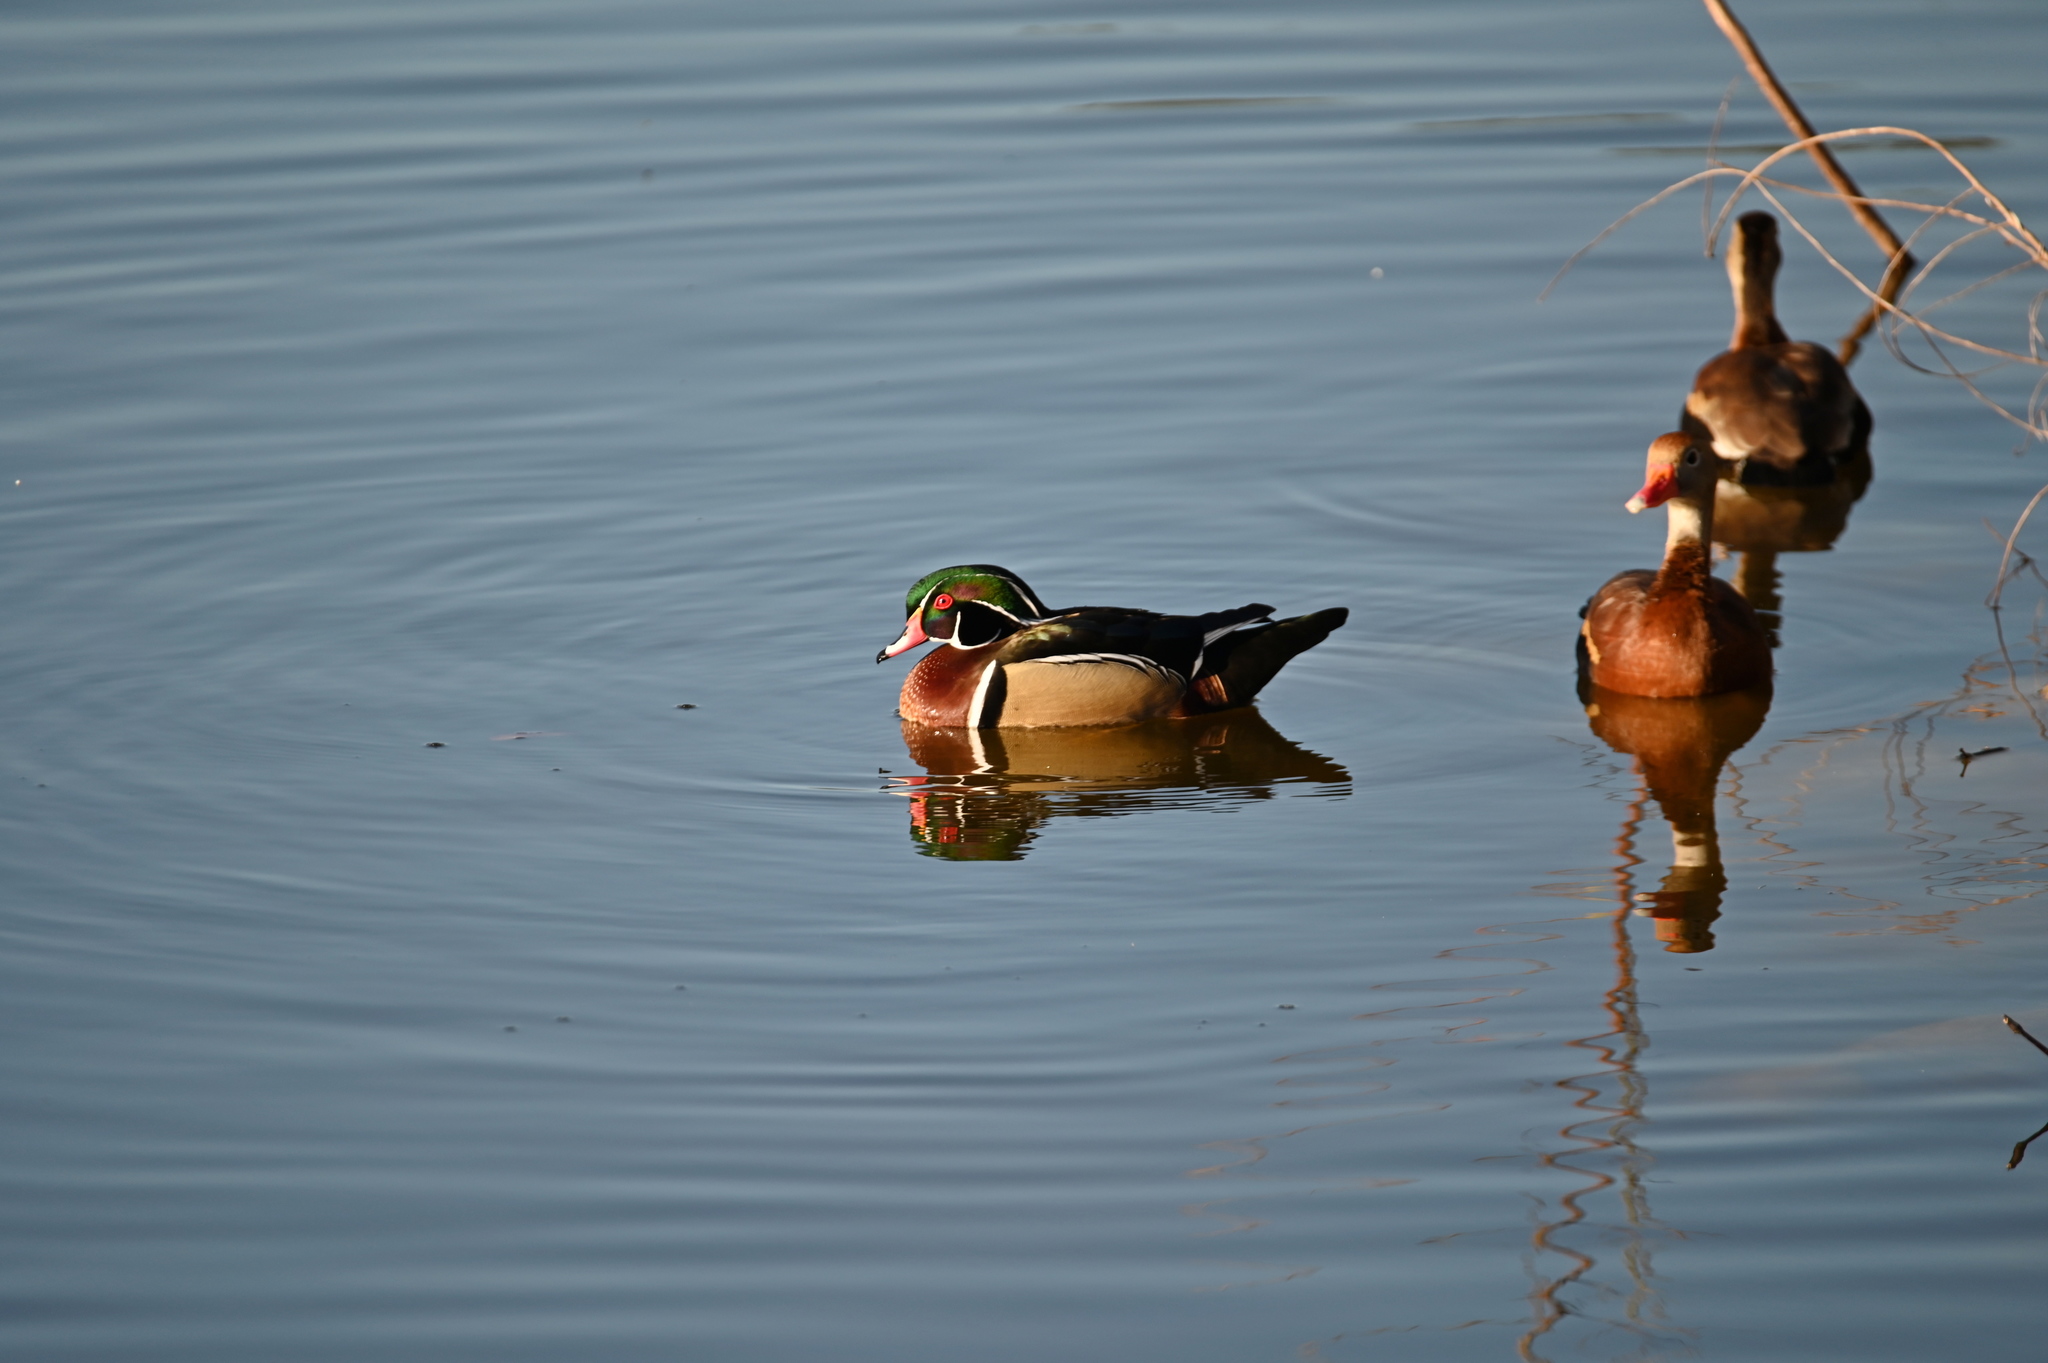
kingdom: Animalia
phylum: Chordata
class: Aves
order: Anseriformes
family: Anatidae
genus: Aix
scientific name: Aix sponsa
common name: Wood duck
